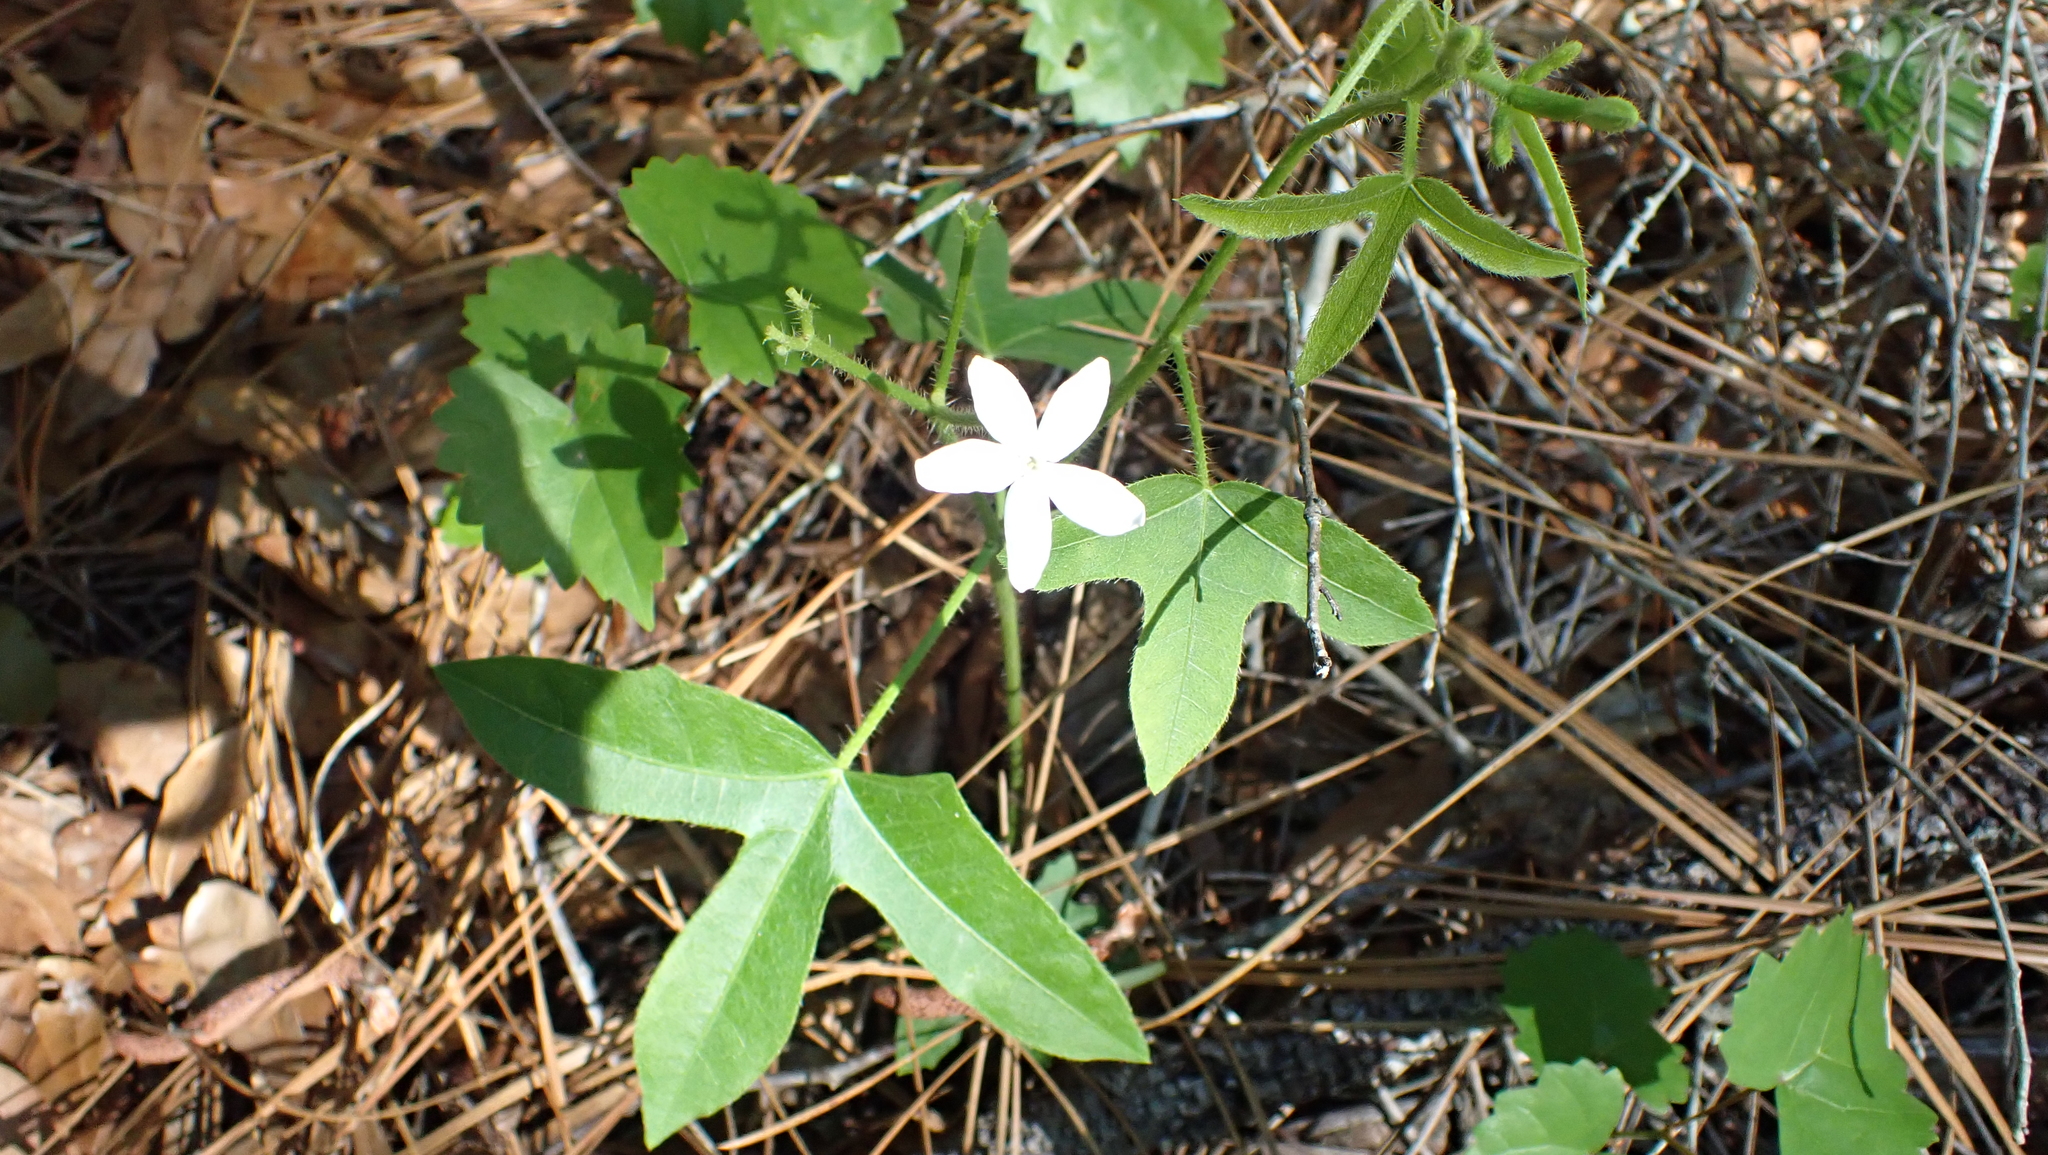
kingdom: Plantae
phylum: Tracheophyta
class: Magnoliopsida
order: Malpighiales
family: Euphorbiaceae
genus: Cnidoscolus
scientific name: Cnidoscolus stimulosus
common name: Bull-nettle
